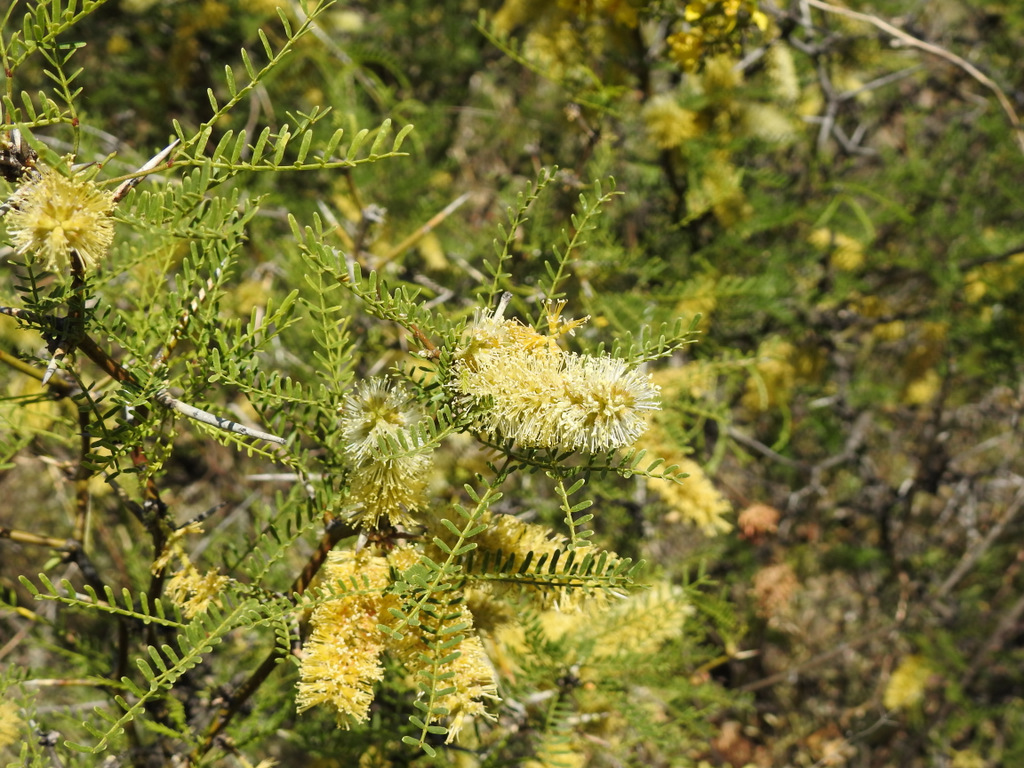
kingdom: Plantae
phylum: Tracheophyta
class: Magnoliopsida
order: Fabales
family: Fabaceae
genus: Prosopis
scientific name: Prosopis flexuosa
